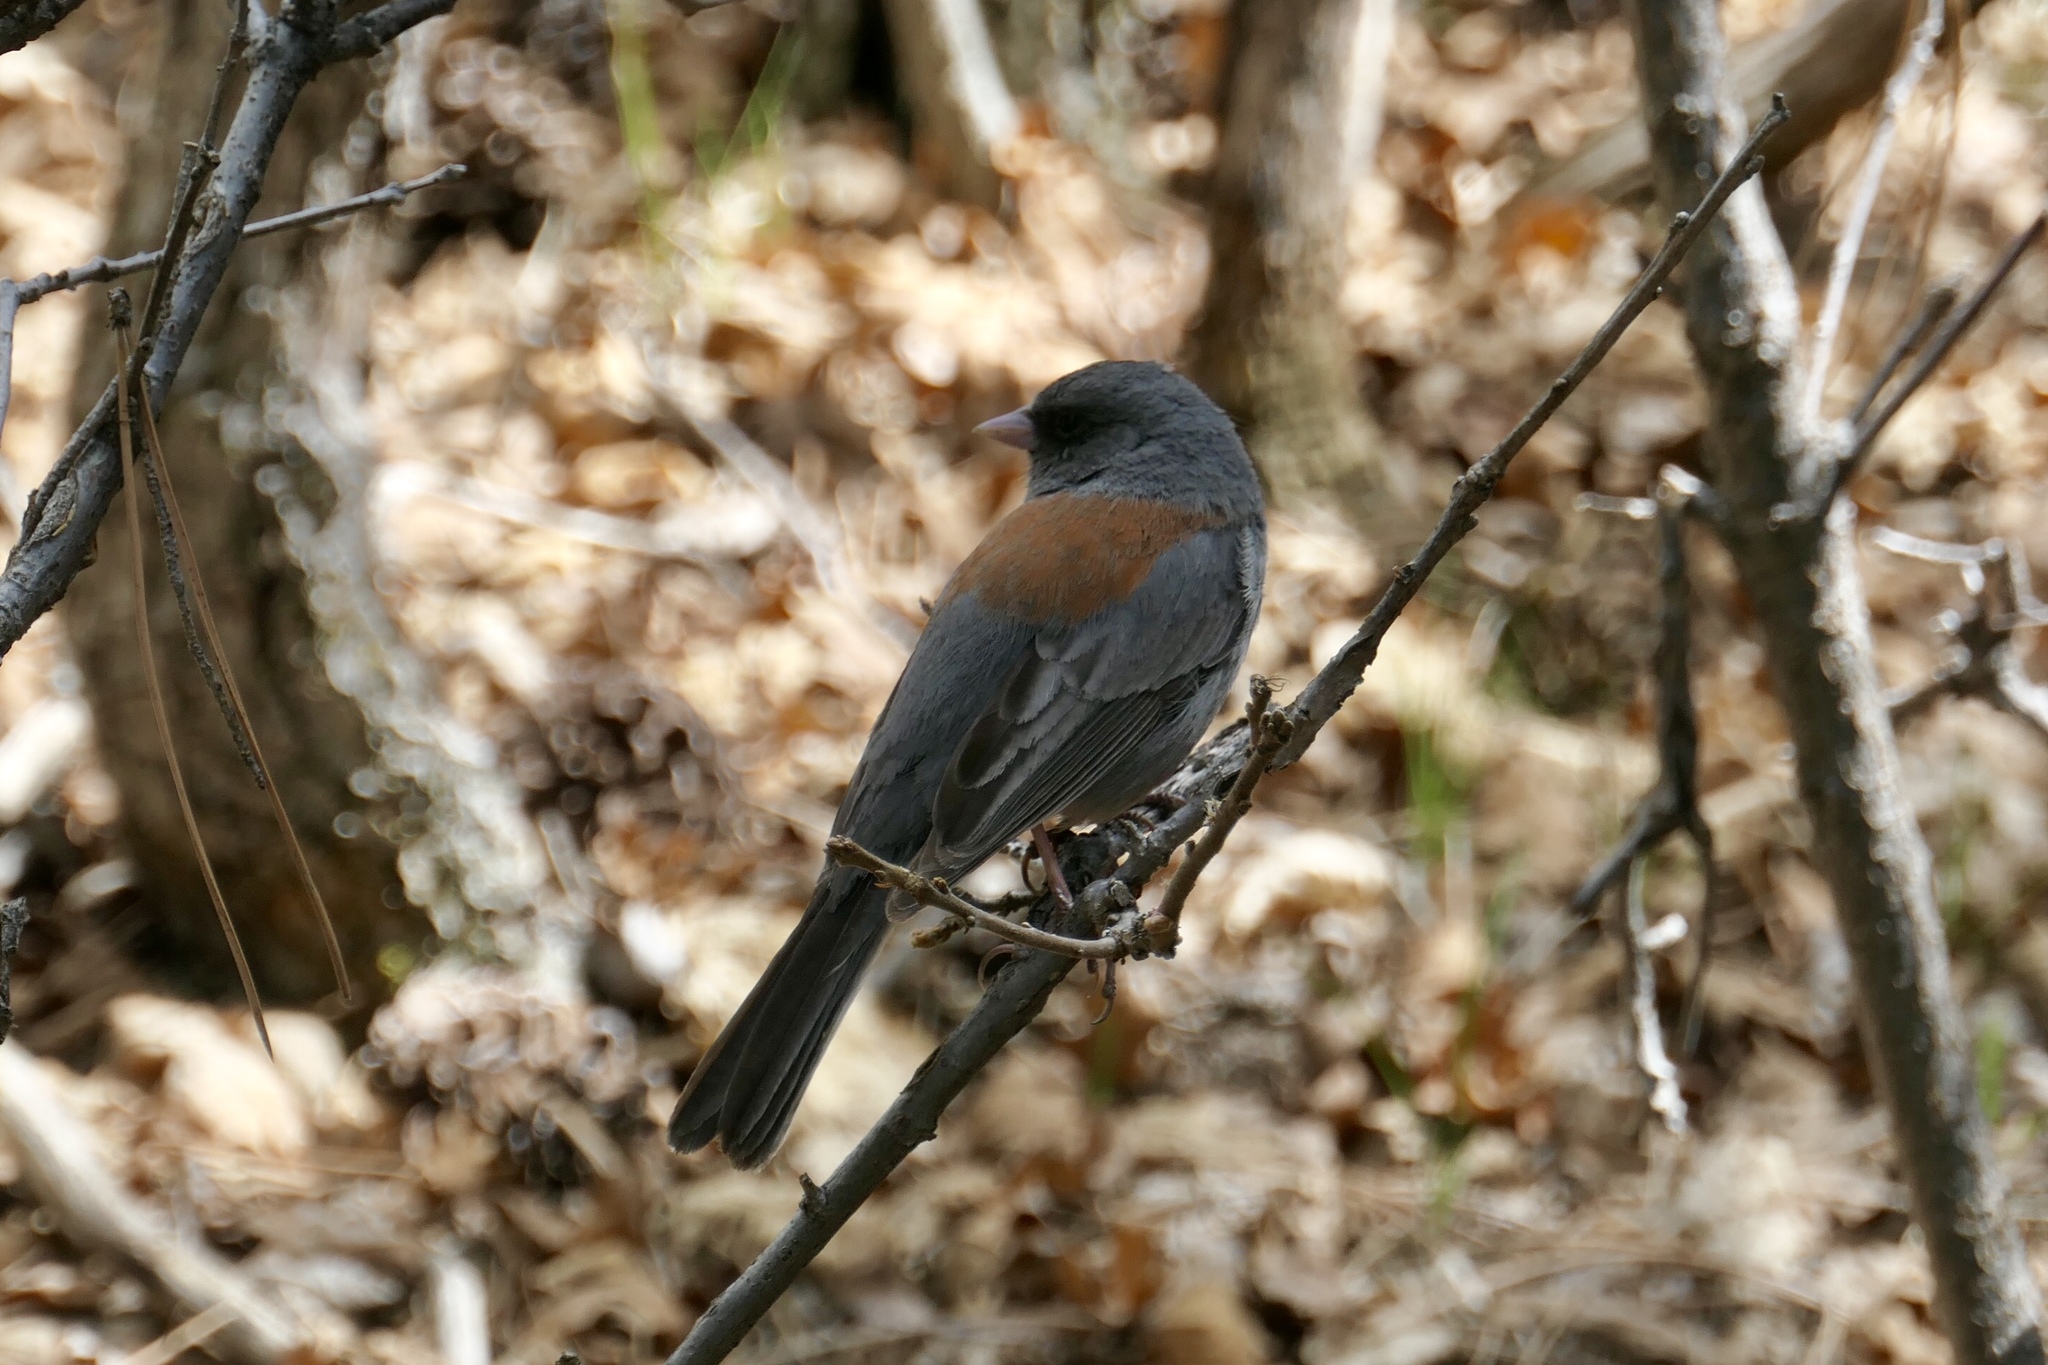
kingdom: Animalia
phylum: Chordata
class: Aves
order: Passeriformes
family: Passerellidae
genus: Junco
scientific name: Junco hyemalis
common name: Dark-eyed junco
